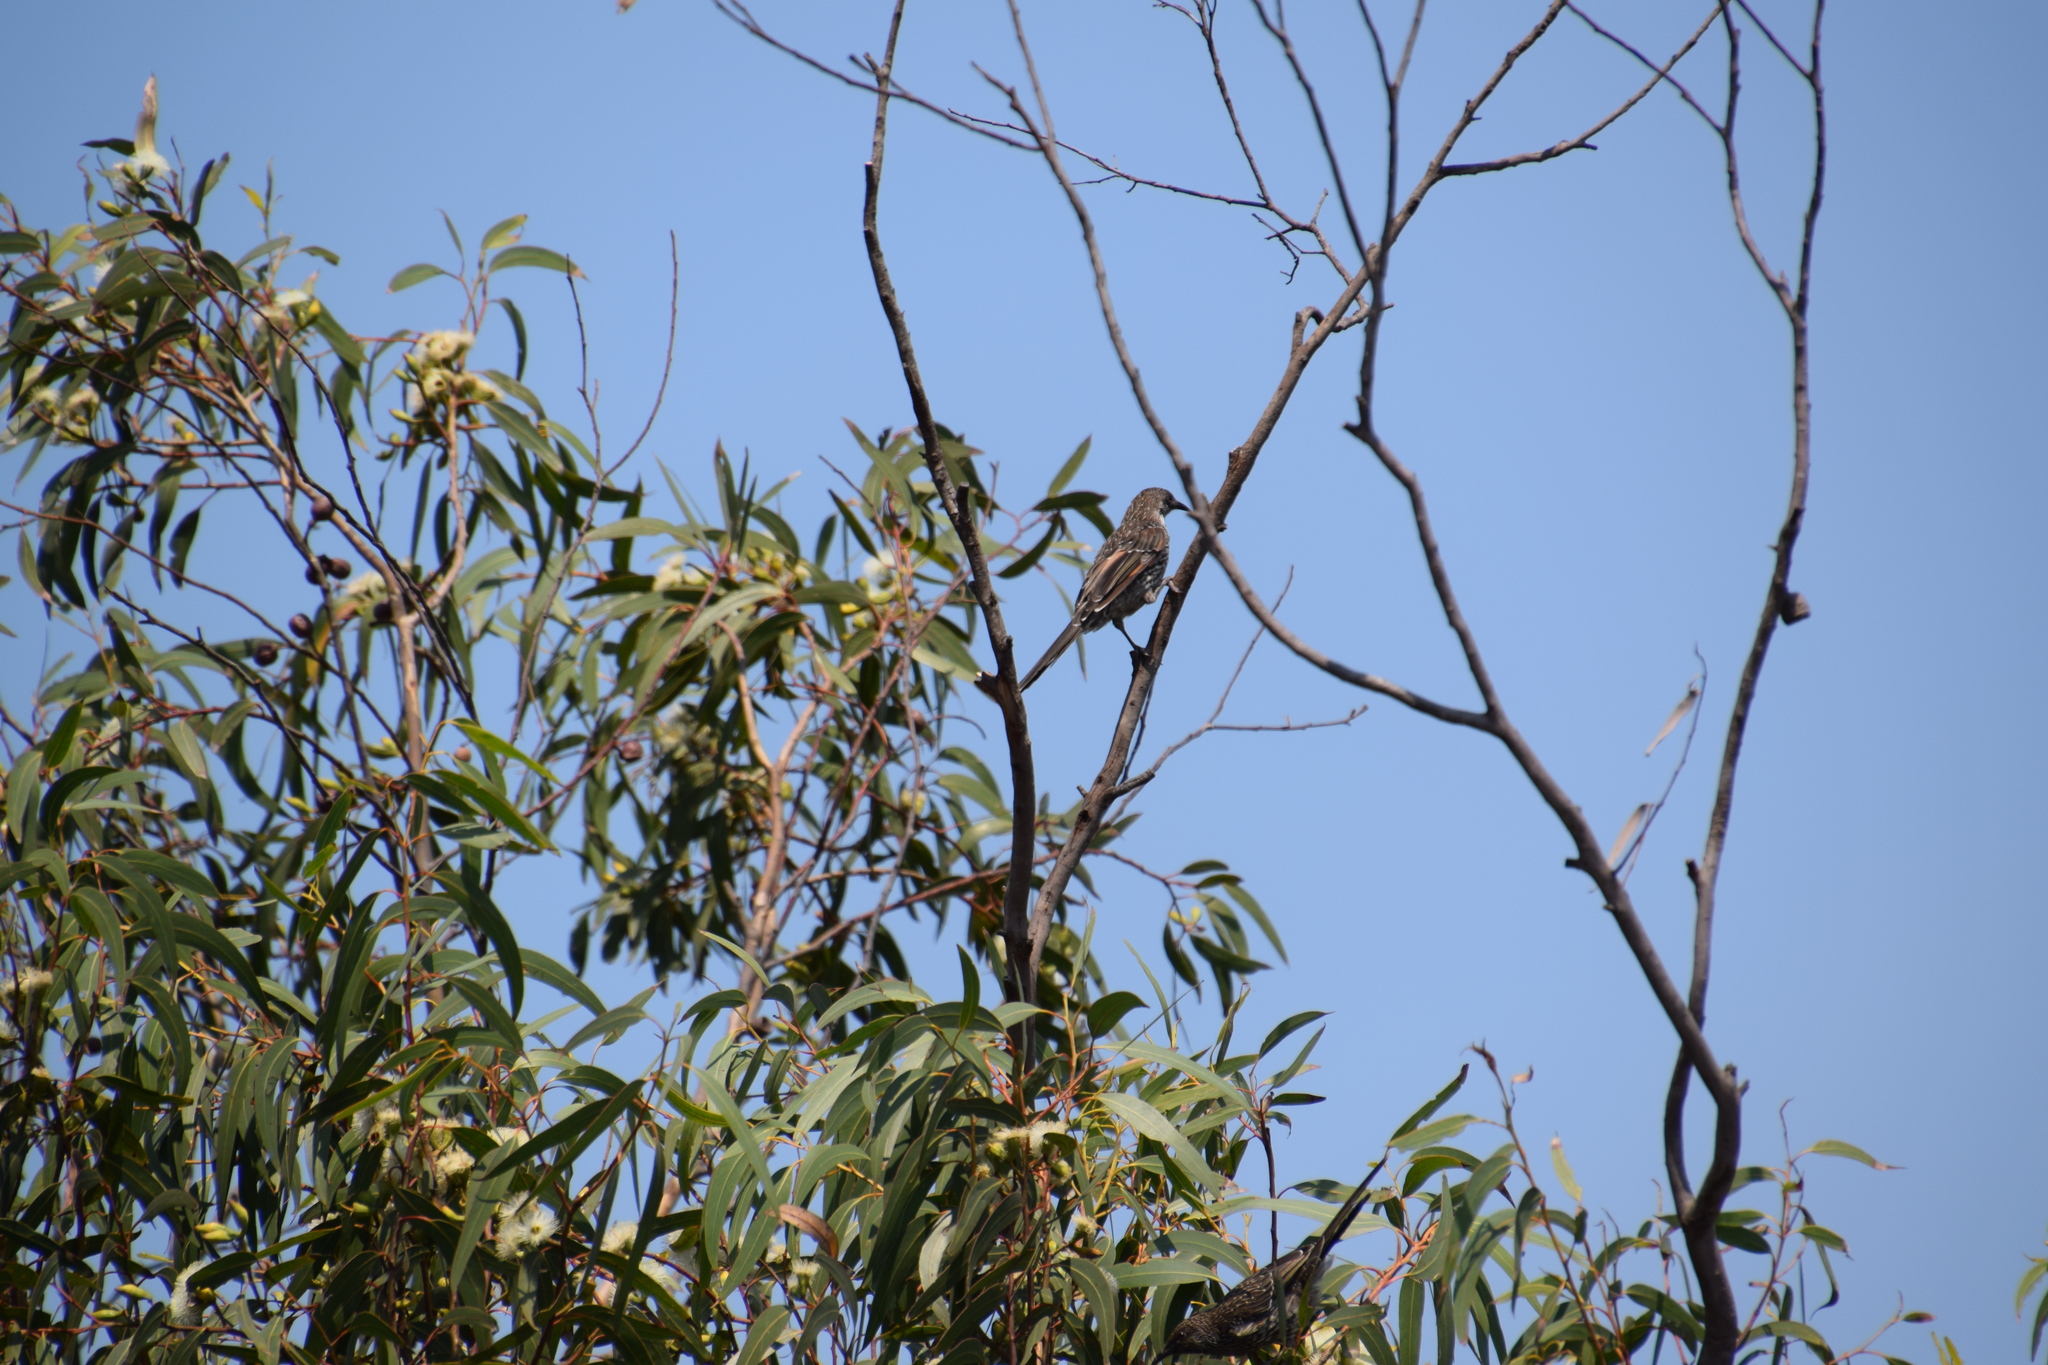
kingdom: Animalia
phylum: Chordata
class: Aves
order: Passeriformes
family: Meliphagidae
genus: Anthochaera
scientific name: Anthochaera chrysoptera
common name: Little wattlebird
